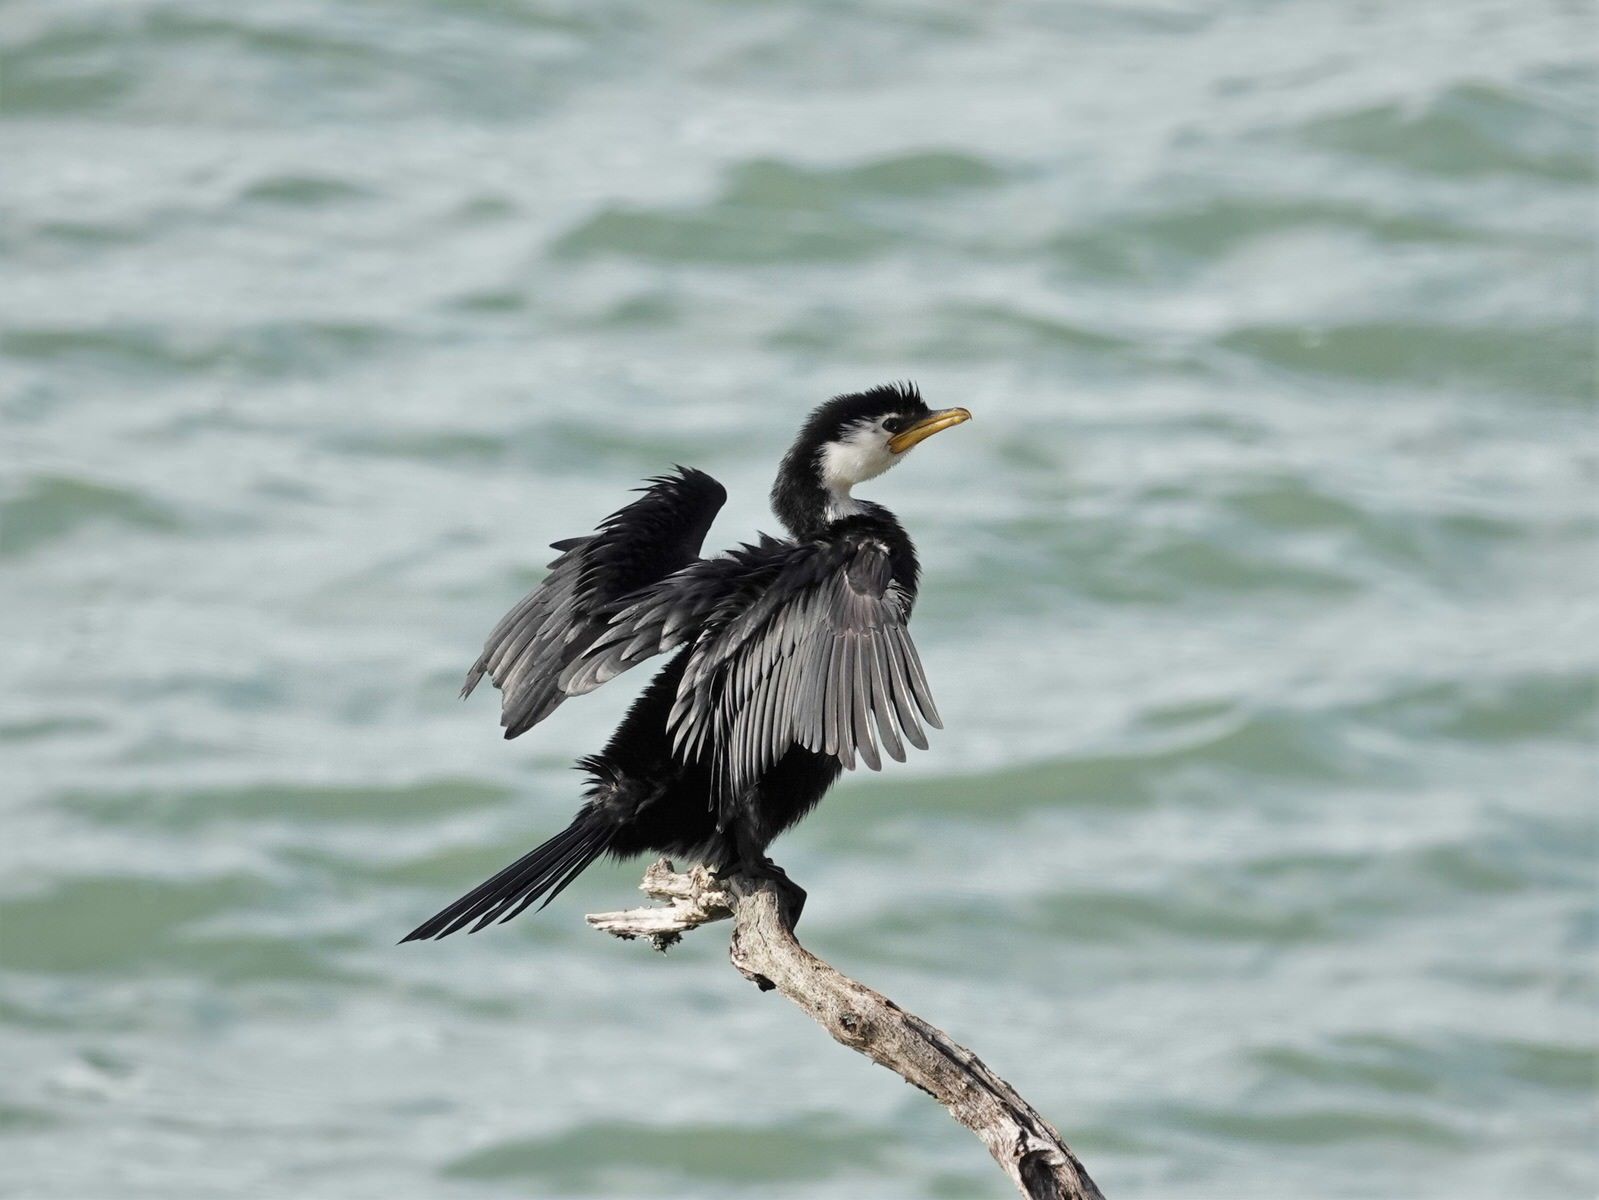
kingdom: Animalia
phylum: Chordata
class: Aves
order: Suliformes
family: Phalacrocoracidae
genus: Microcarbo
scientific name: Microcarbo melanoleucos
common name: Little pied cormorant
